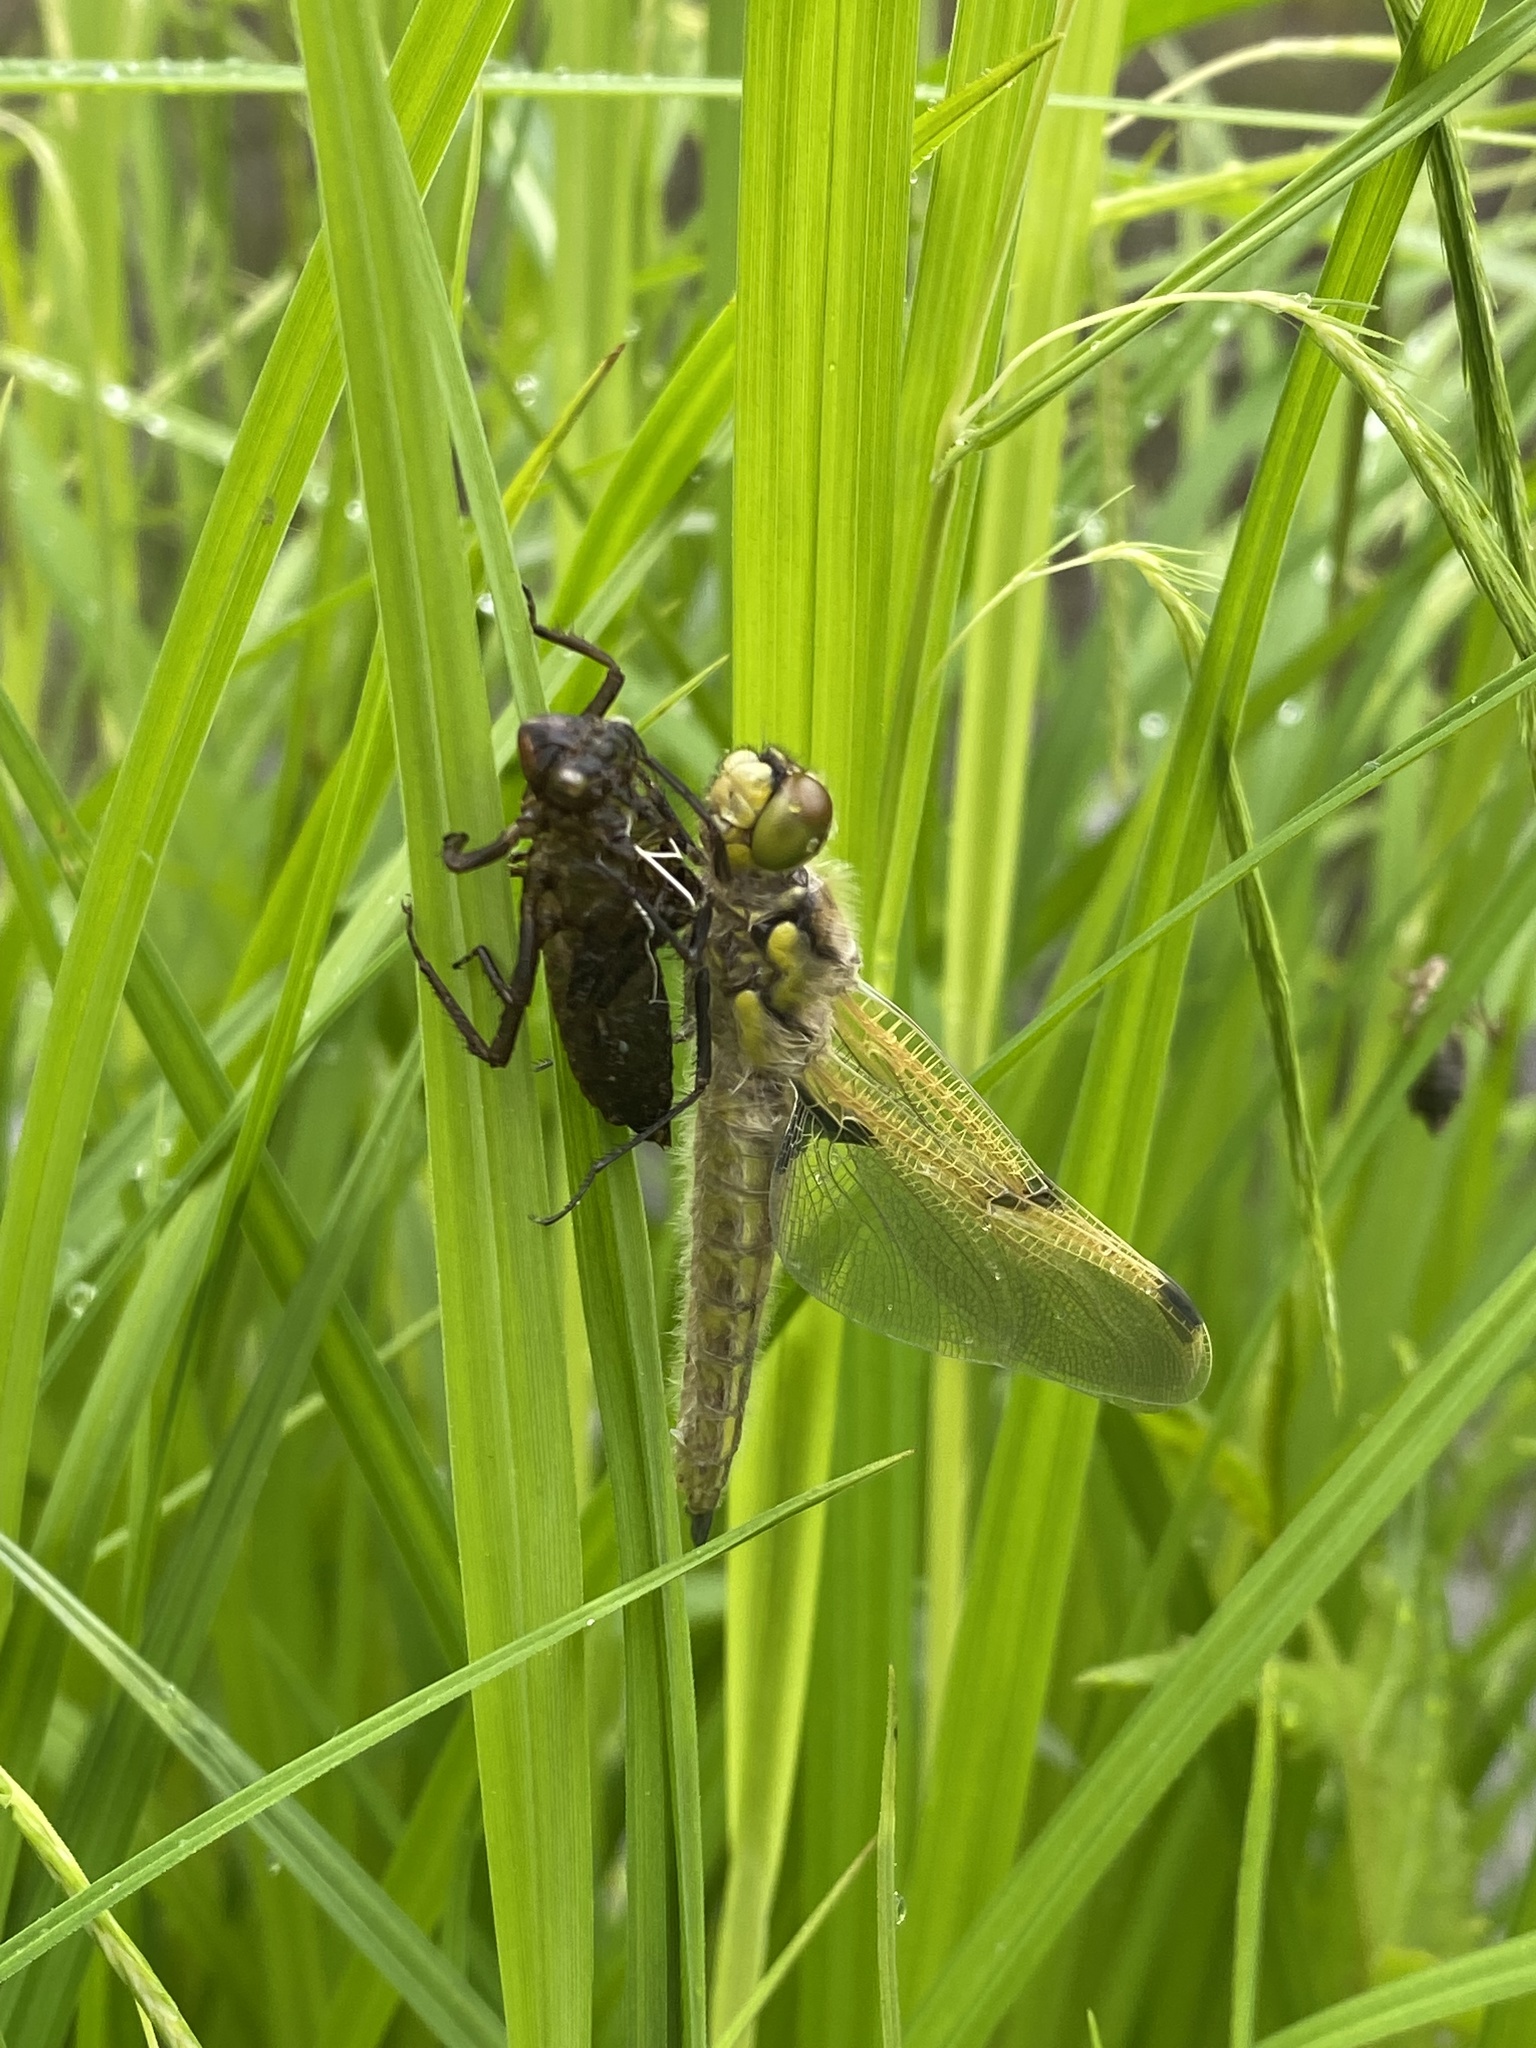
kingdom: Animalia
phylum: Arthropoda
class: Insecta
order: Odonata
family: Libellulidae
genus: Libellula
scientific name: Libellula quadrimaculata
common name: Four-spotted chaser
